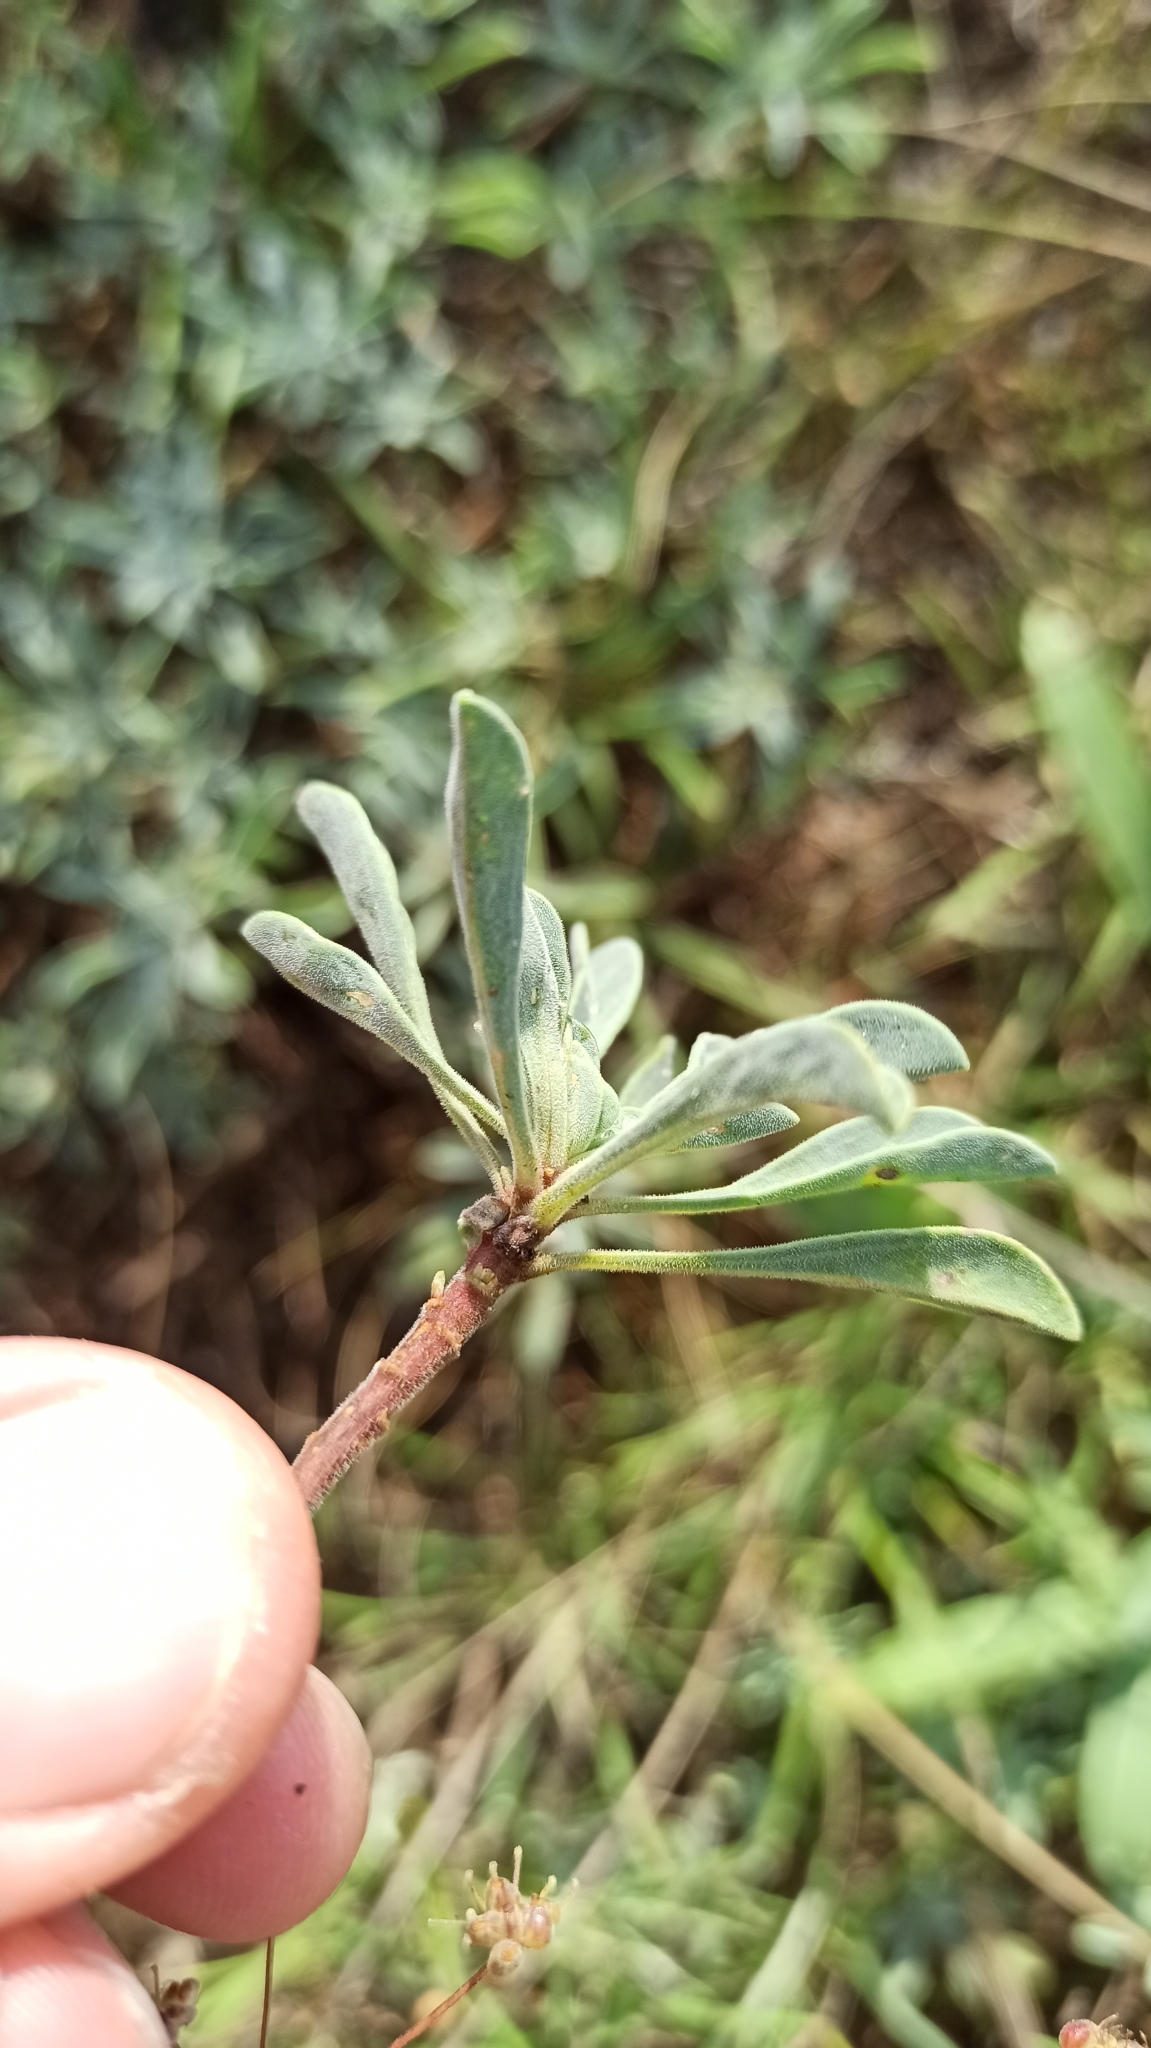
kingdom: Plantae
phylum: Tracheophyta
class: Magnoliopsida
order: Malpighiales
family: Linaceae
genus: Linum
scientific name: Linum pallasianum
